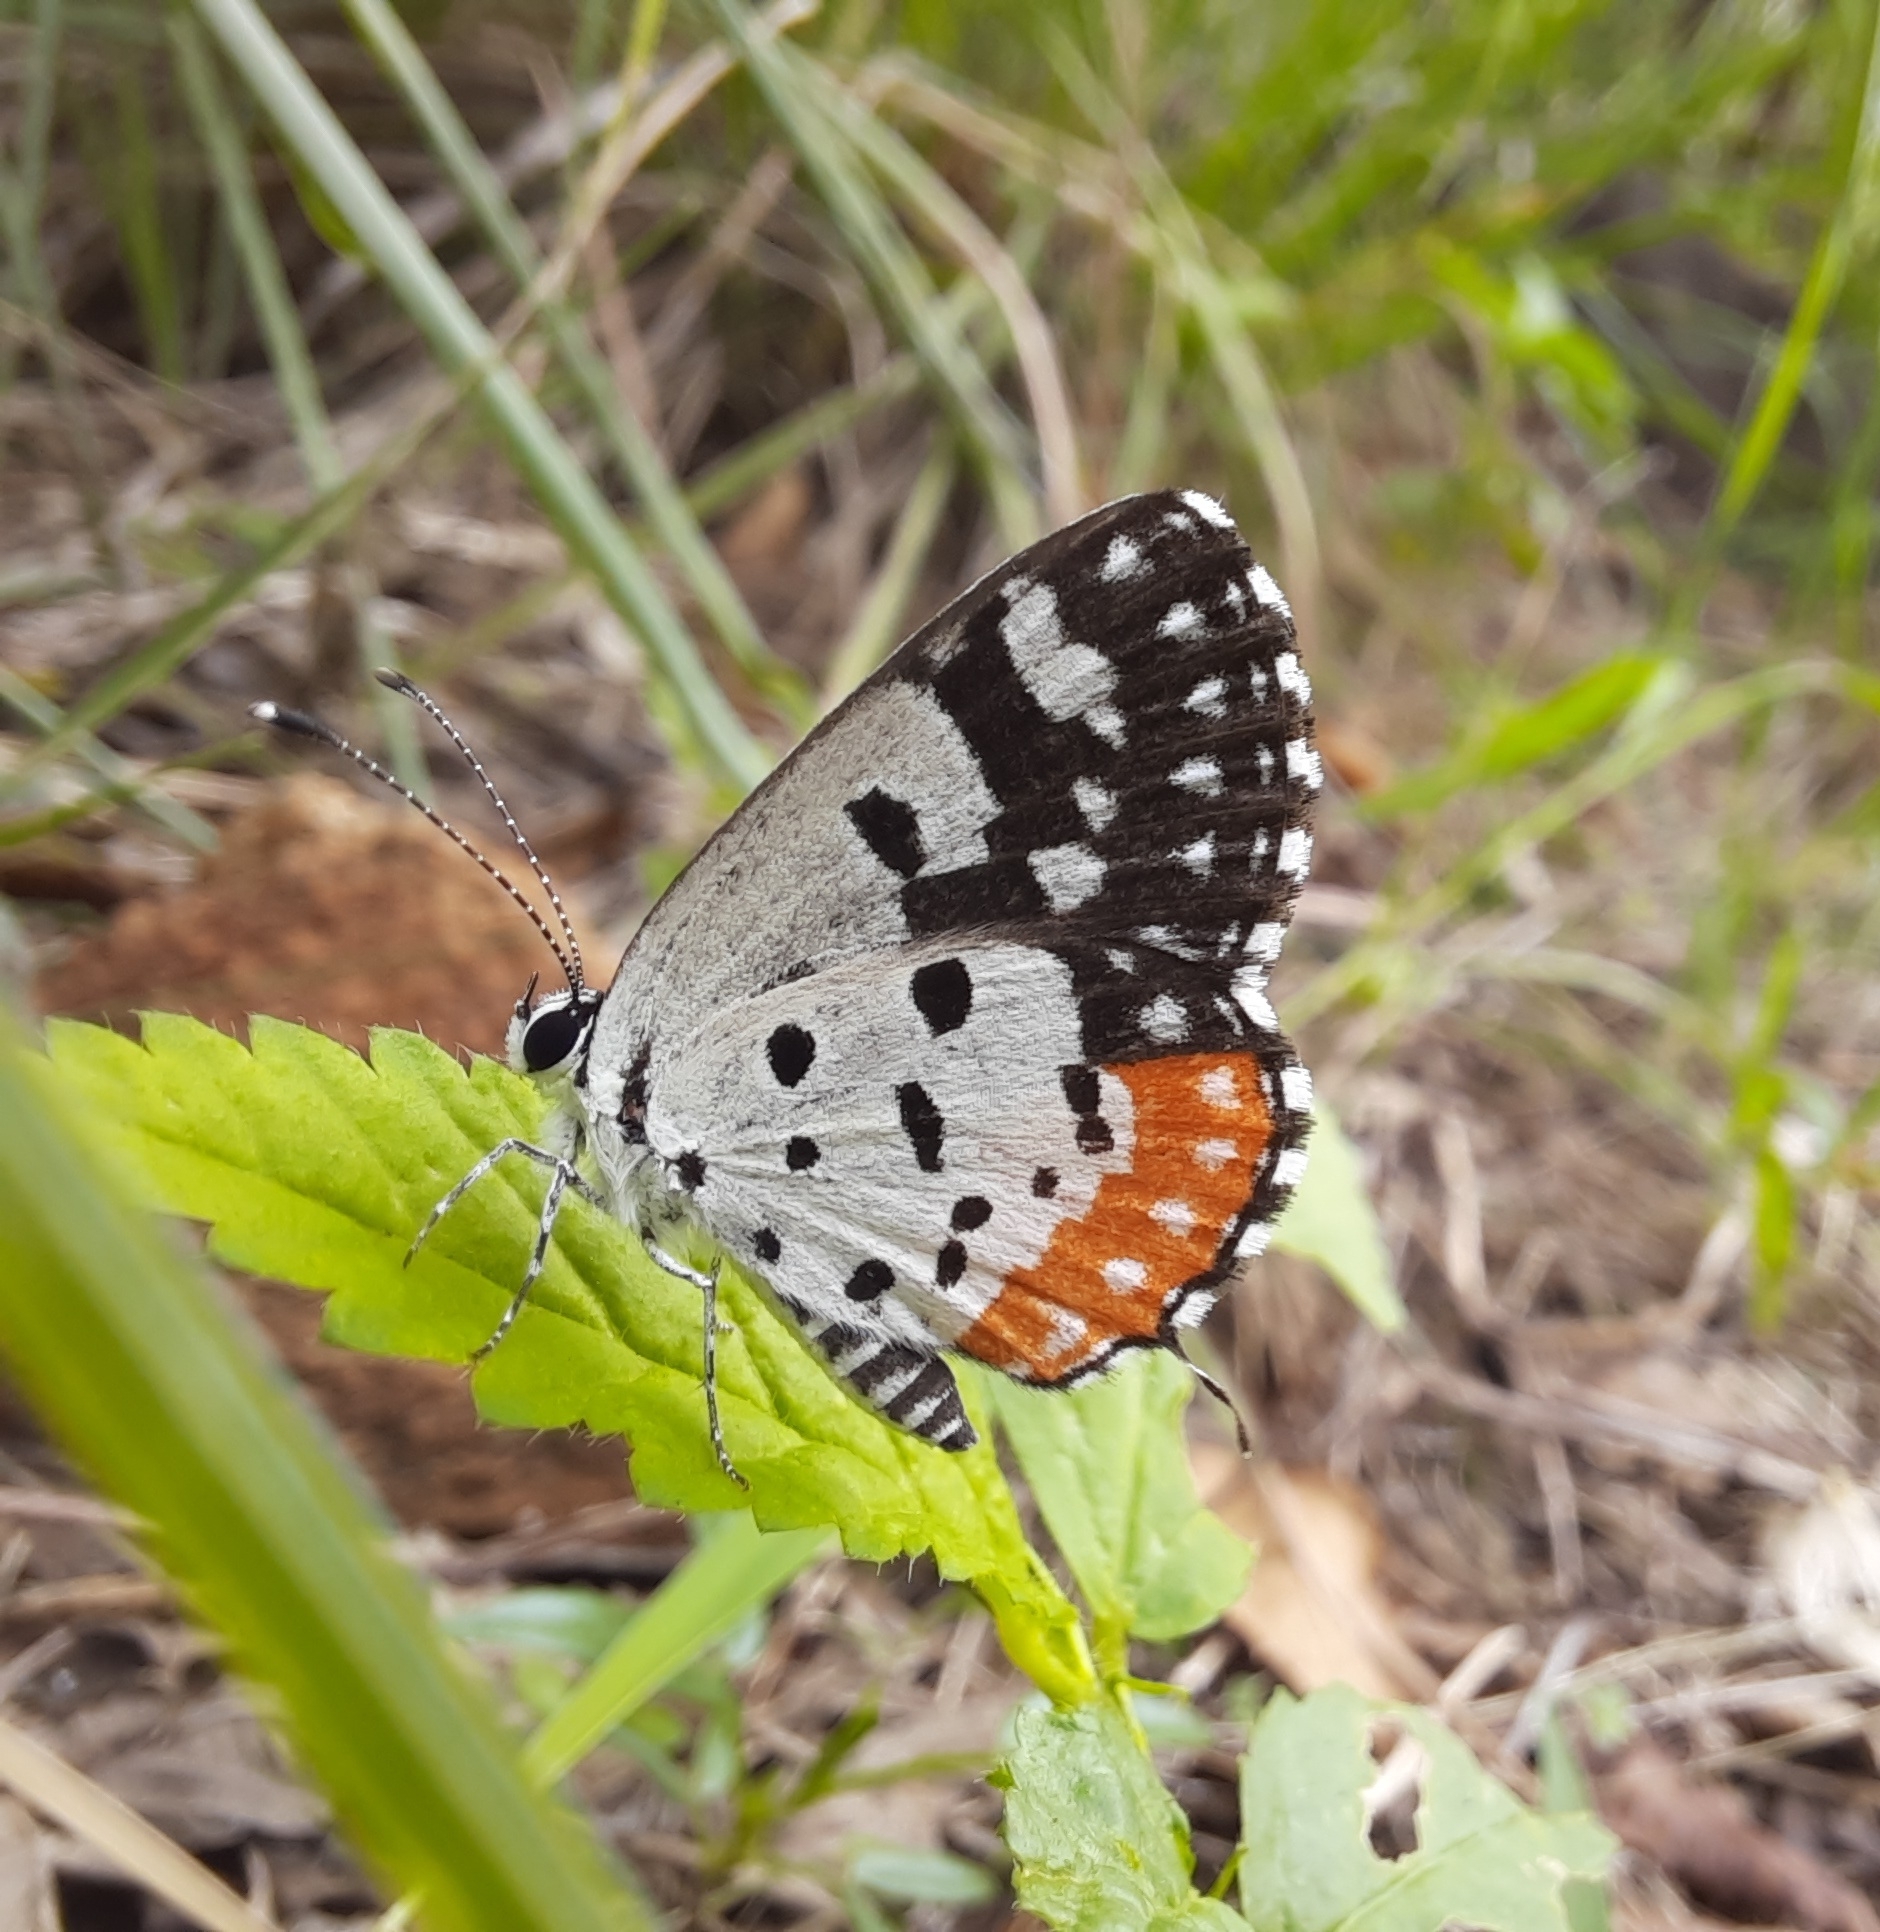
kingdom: Animalia
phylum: Arthropoda
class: Insecta
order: Lepidoptera
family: Lycaenidae
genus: Talicada
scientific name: Talicada nyseus
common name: Red pierrot
